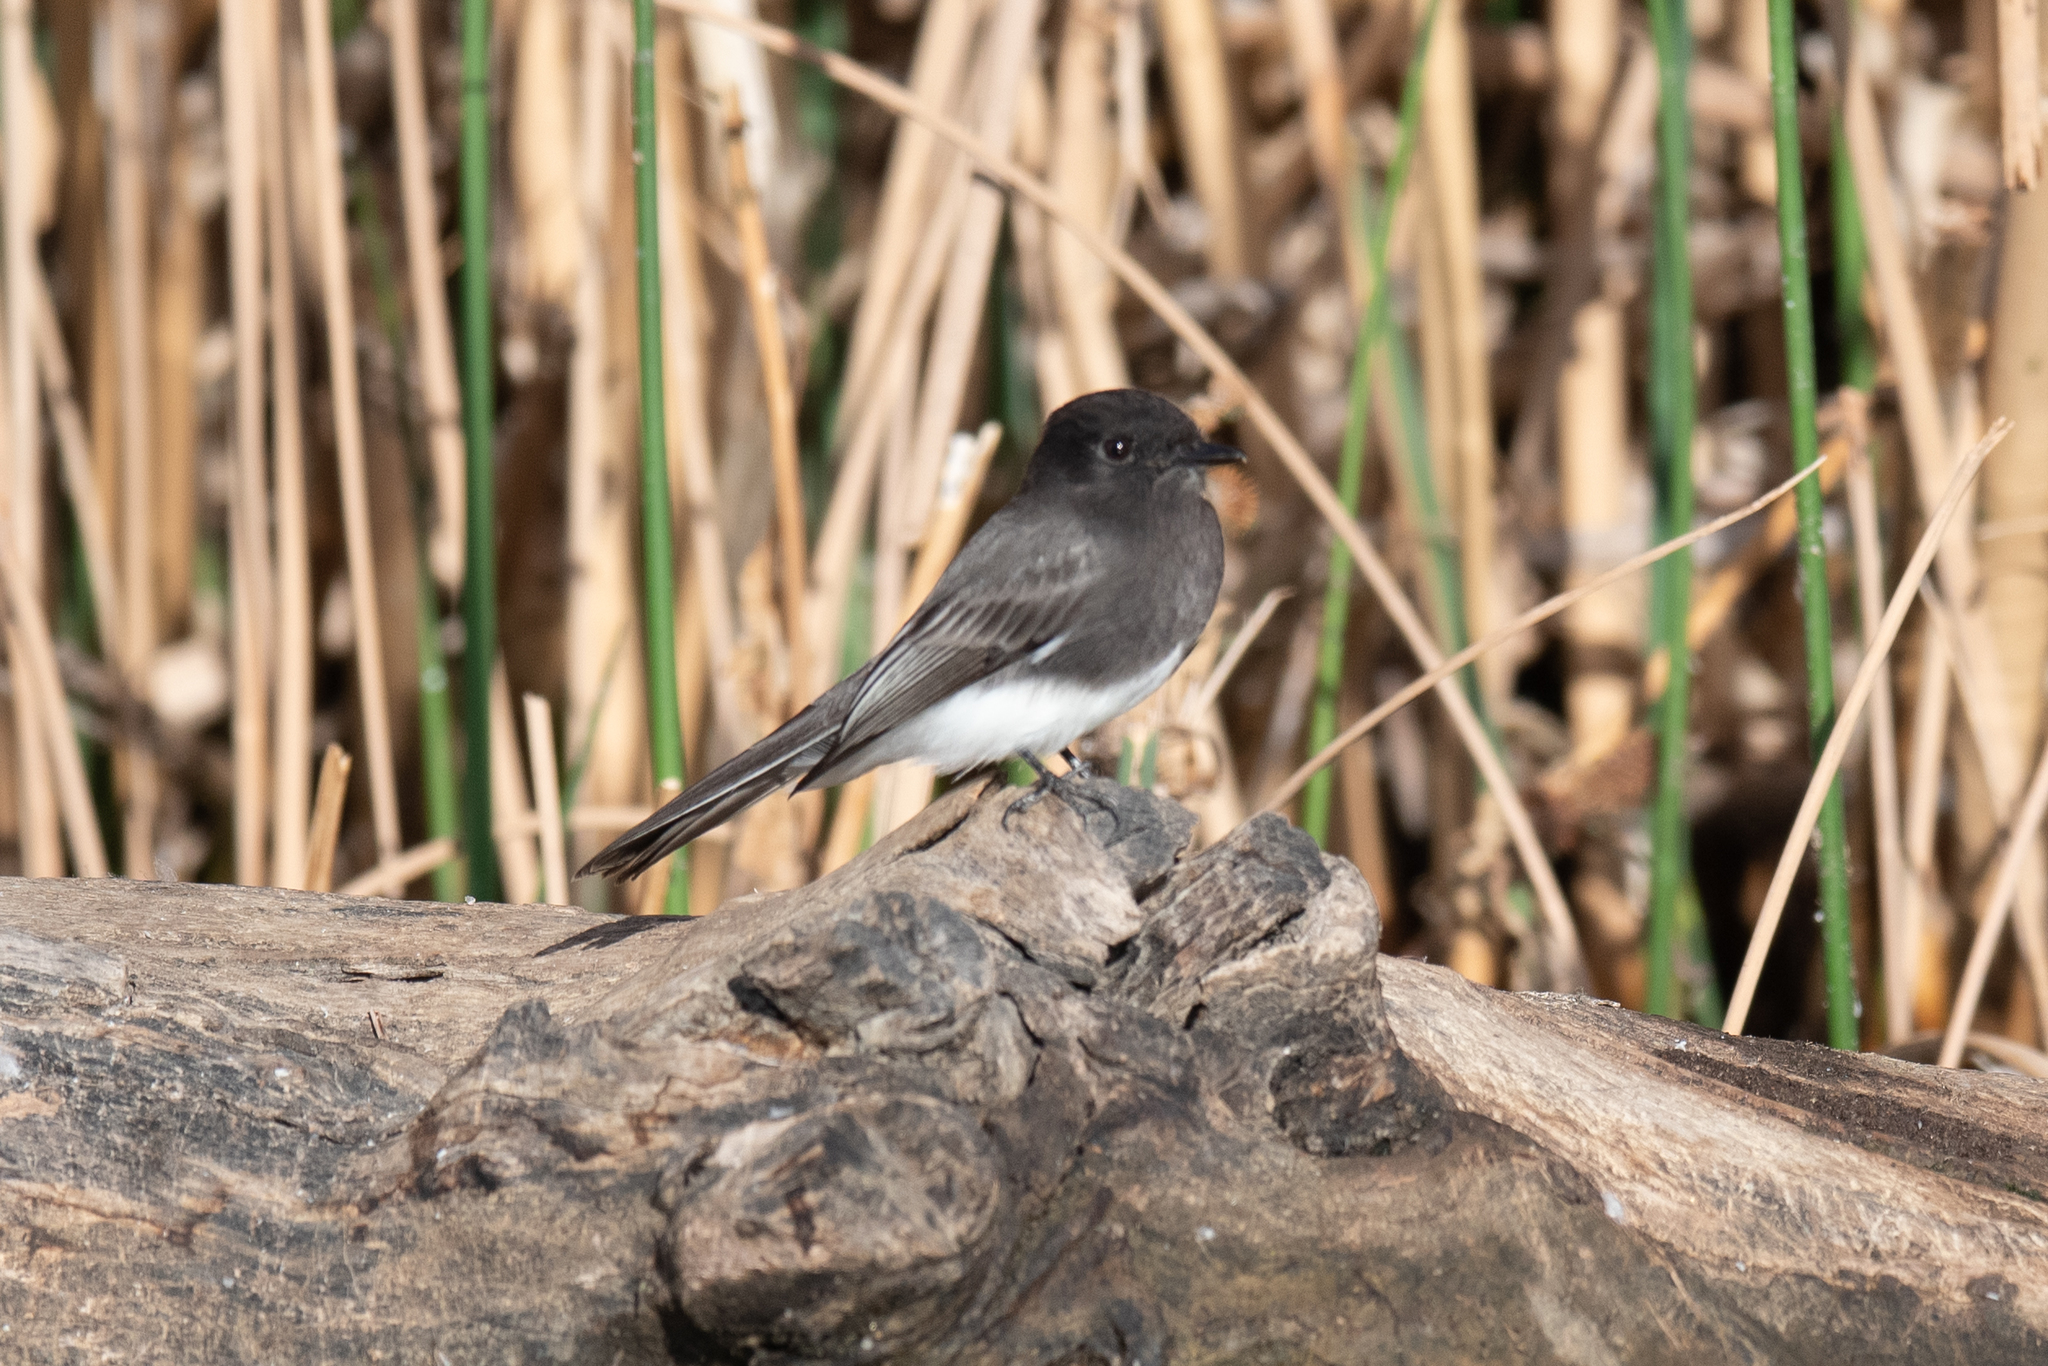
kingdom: Animalia
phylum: Chordata
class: Aves
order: Passeriformes
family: Tyrannidae
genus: Sayornis
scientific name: Sayornis nigricans
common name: Black phoebe
